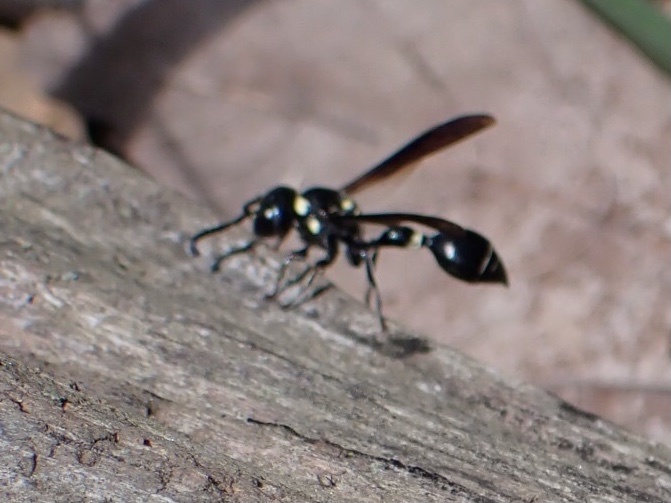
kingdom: Animalia
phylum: Arthropoda
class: Insecta
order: Hymenoptera
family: Eumenidae
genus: Zethus
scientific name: Zethus spinipes
